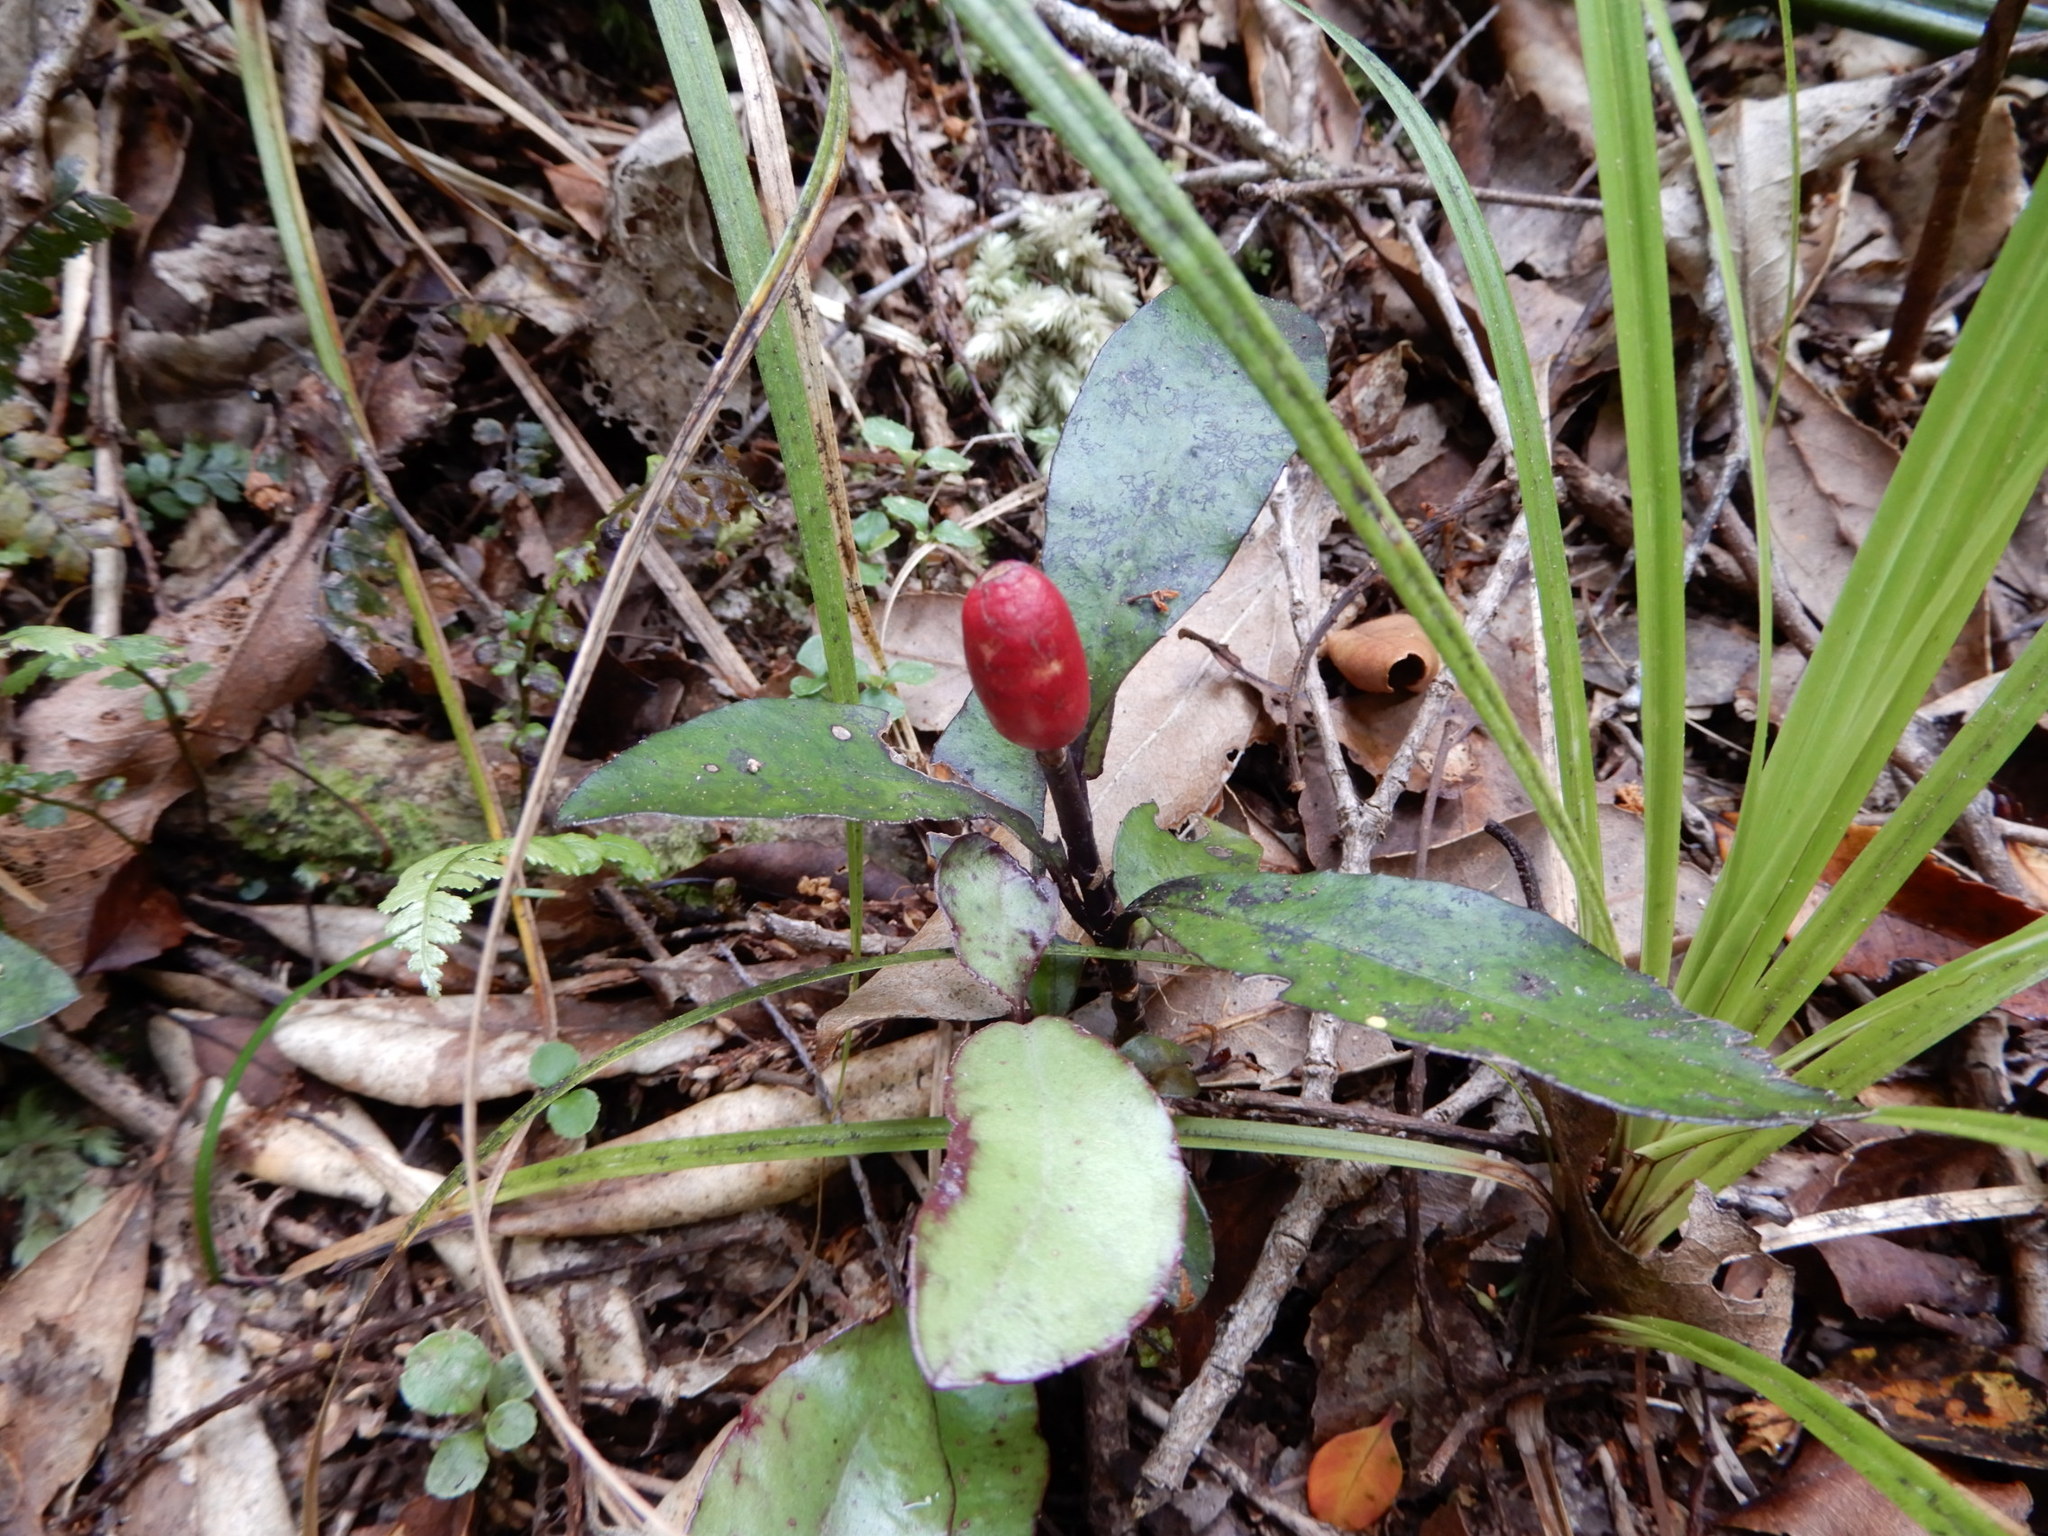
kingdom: Plantae
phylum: Tracheophyta
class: Magnoliopsida
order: Canellales
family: Winteraceae
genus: Pseudowintera
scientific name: Pseudowintera colorata
